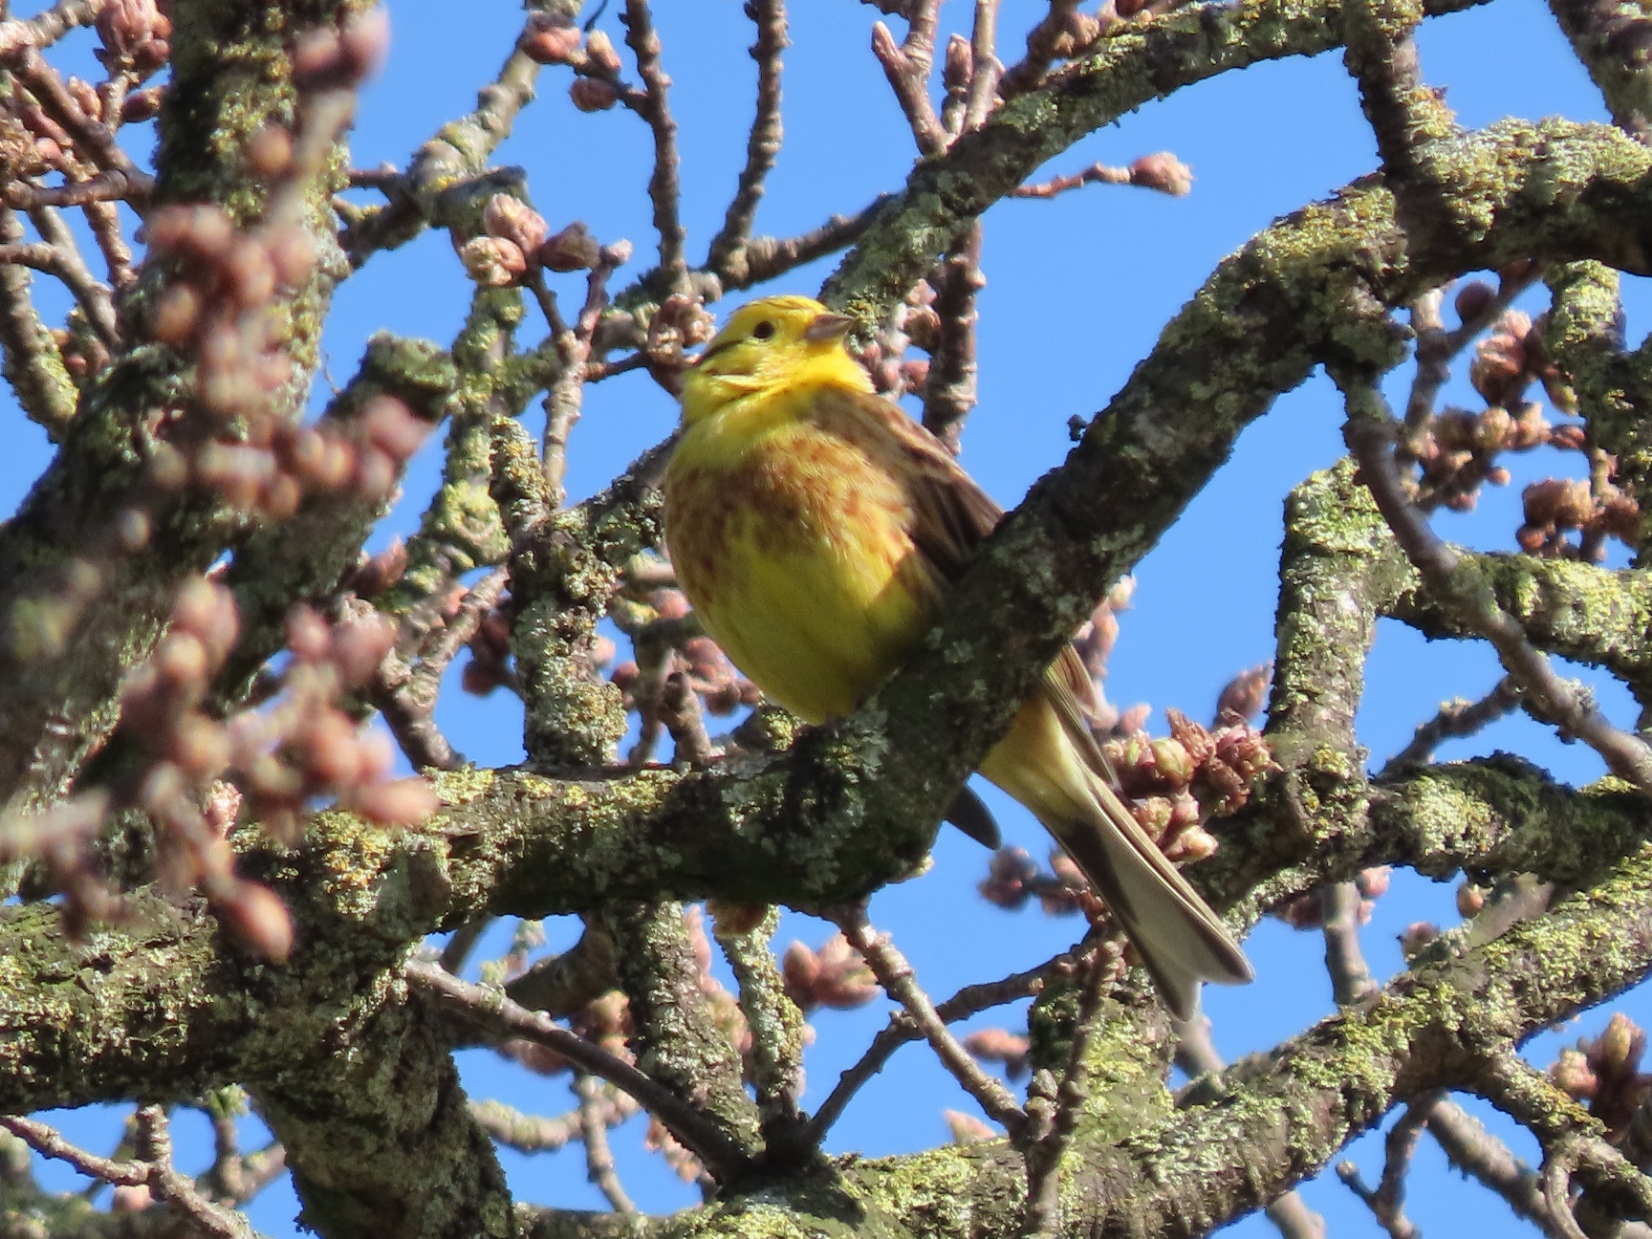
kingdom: Animalia
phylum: Chordata
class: Aves
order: Passeriformes
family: Emberizidae
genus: Emberiza
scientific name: Emberiza citrinella
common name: Yellowhammer
